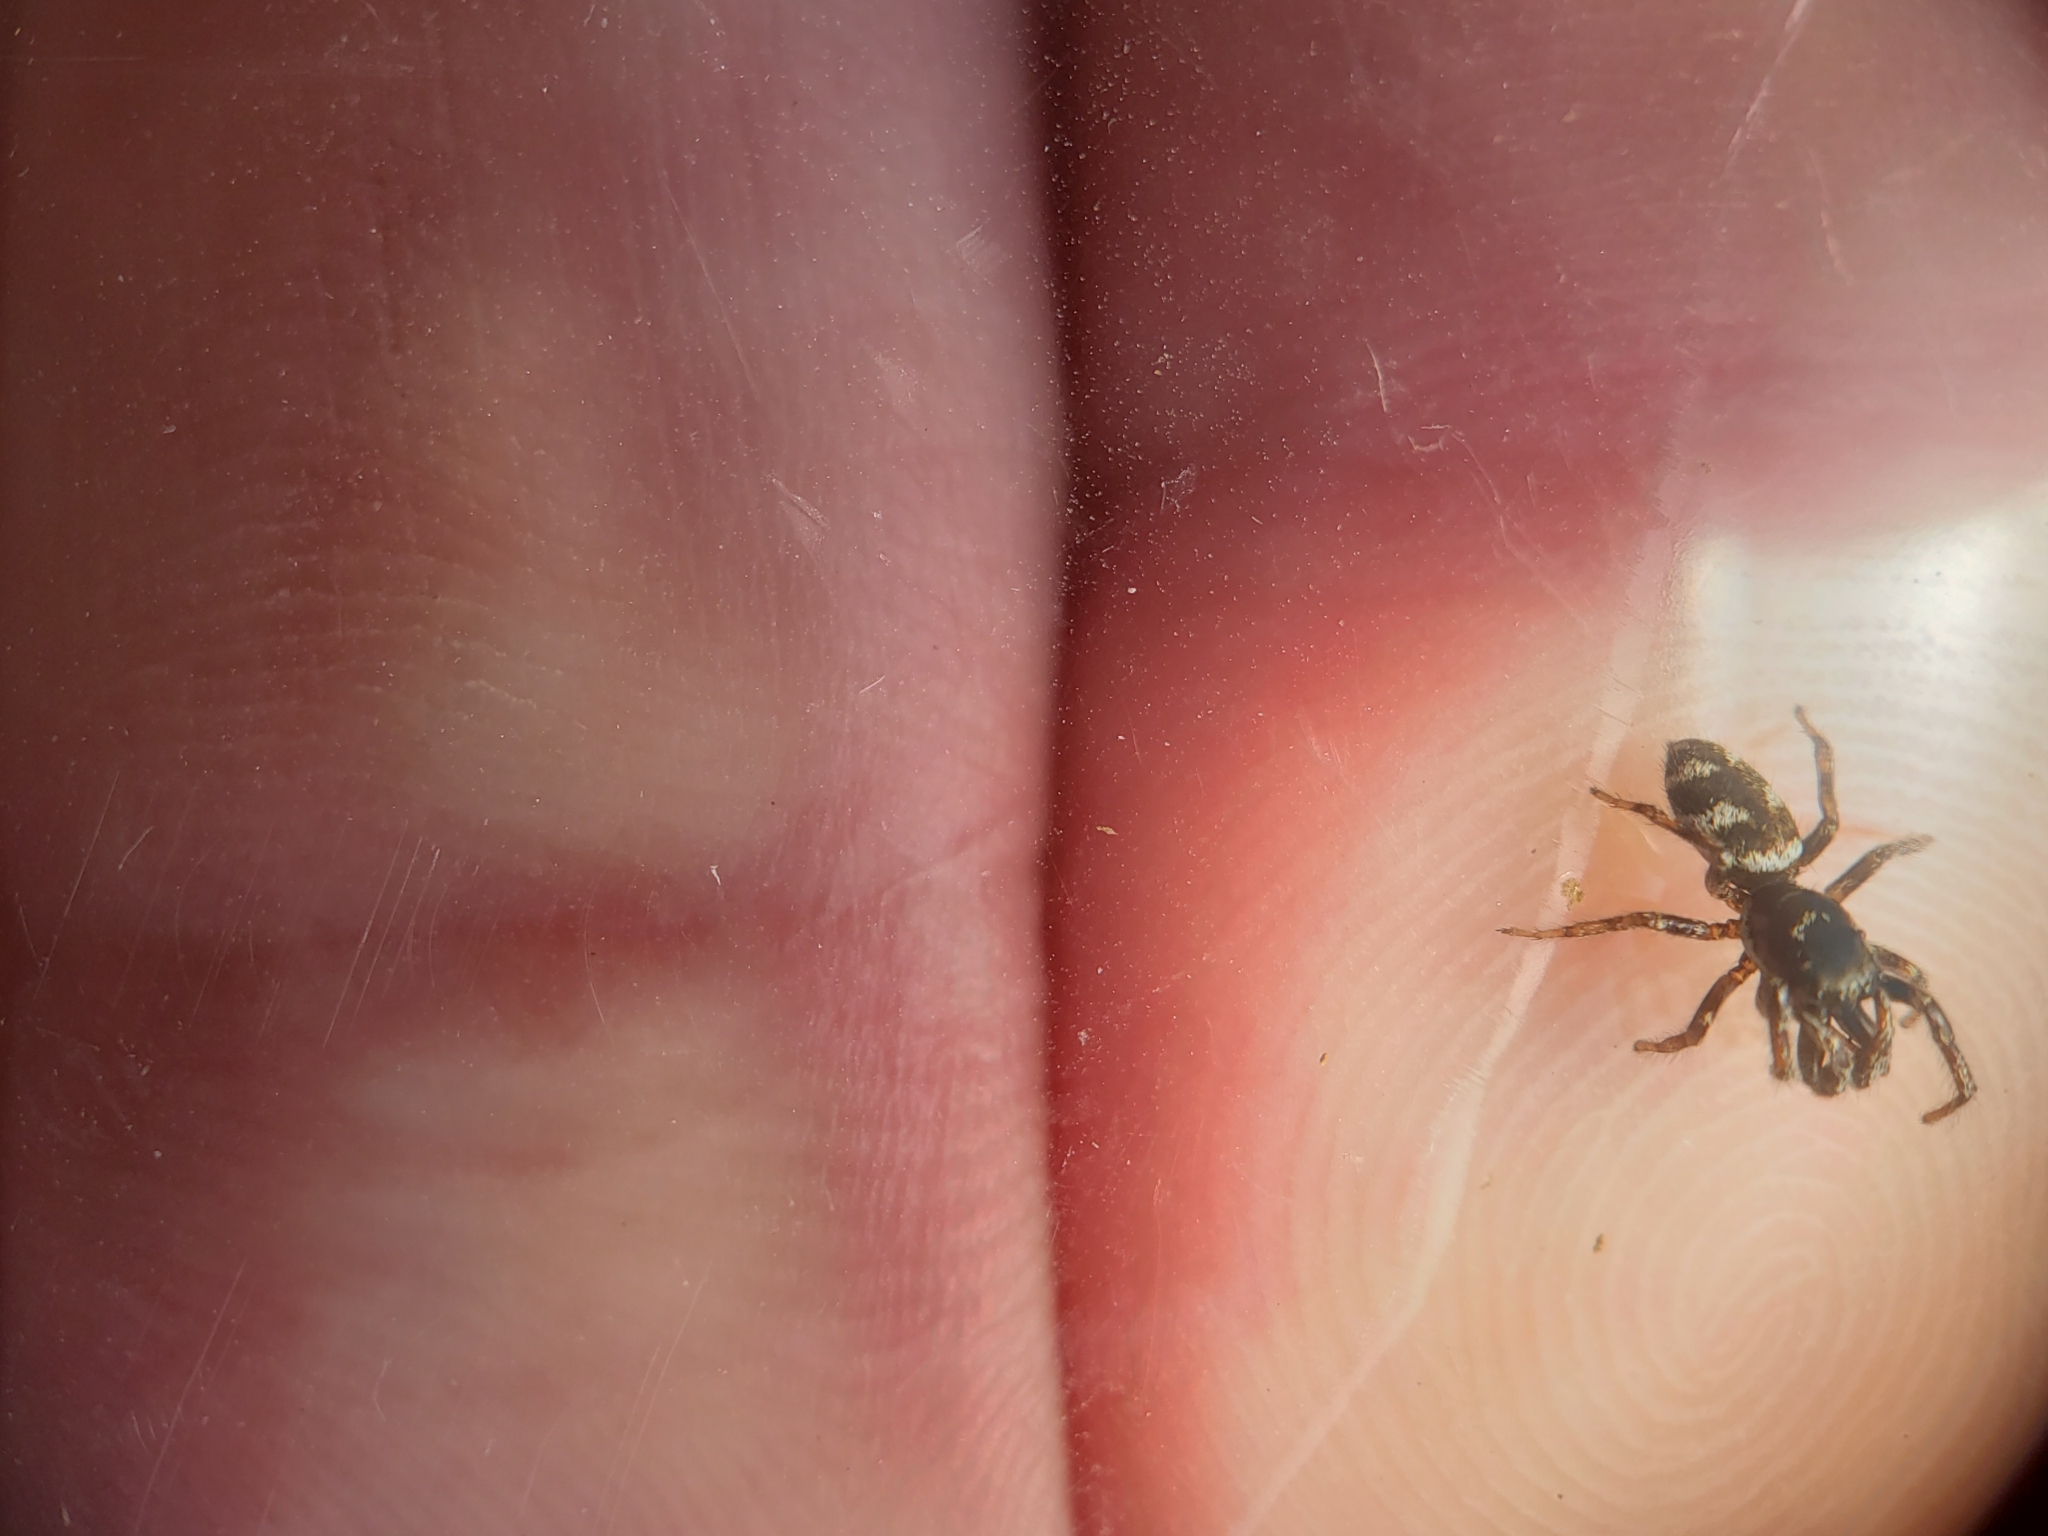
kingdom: Animalia
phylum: Arthropoda
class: Arachnida
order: Araneae
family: Salticidae
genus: Salticus
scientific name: Salticus scenicus
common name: Zebra jumper
